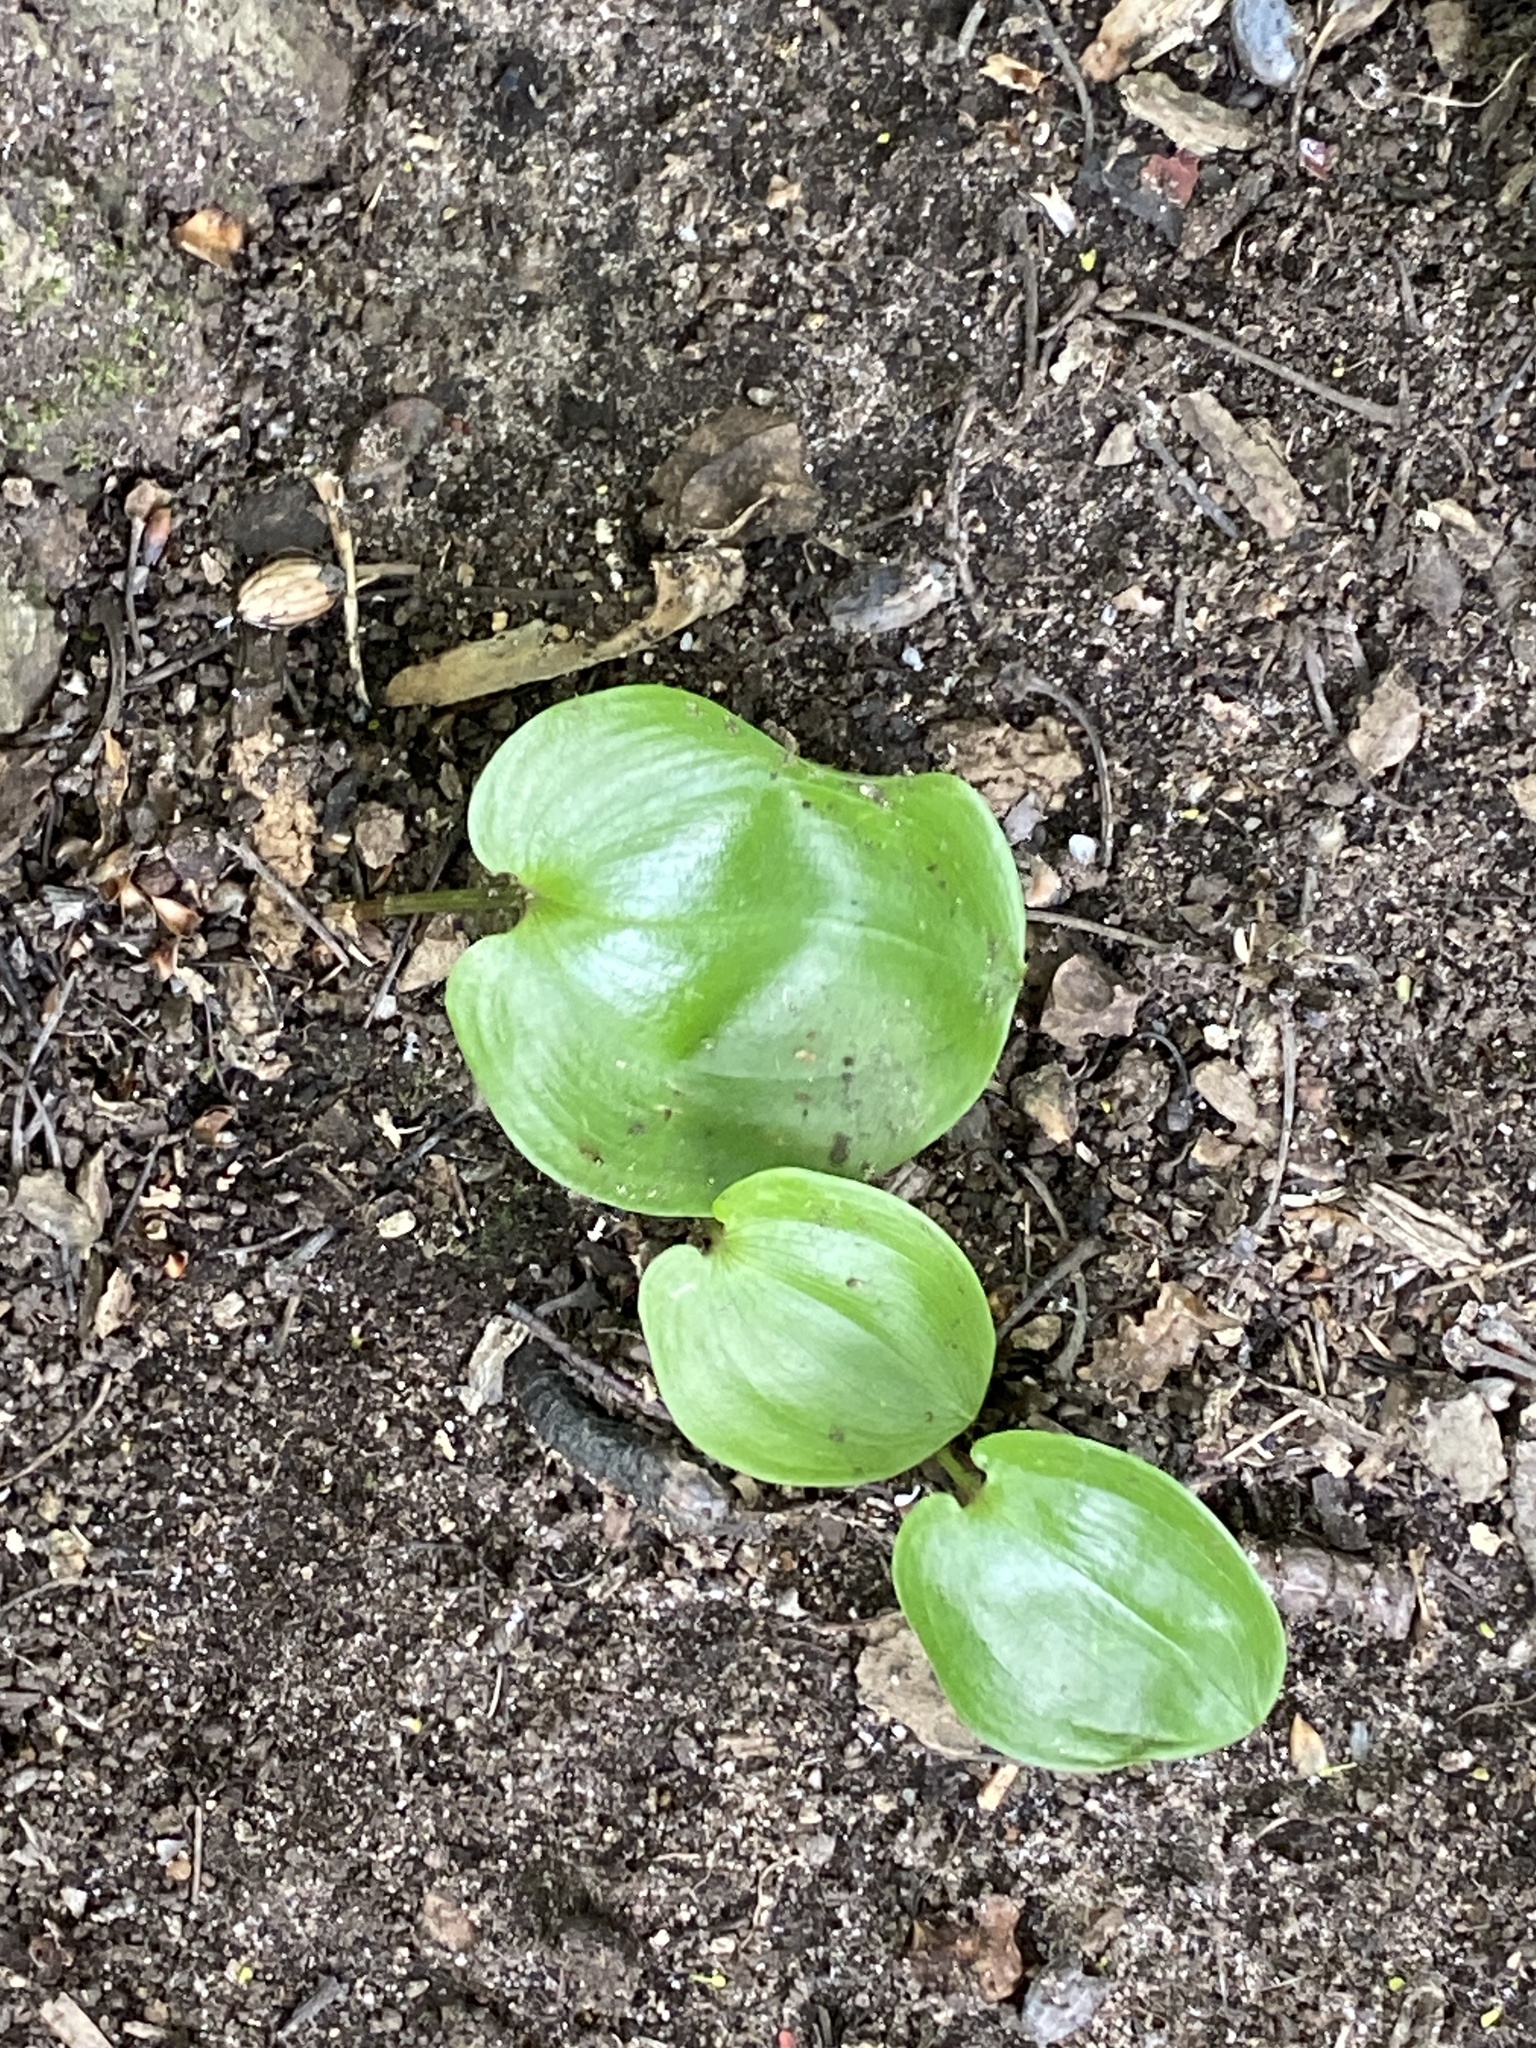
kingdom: Plantae
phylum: Tracheophyta
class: Liliopsida
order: Asparagales
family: Asparagaceae
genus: Maianthemum
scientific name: Maianthemum canadense
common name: False lily-of-the-valley
